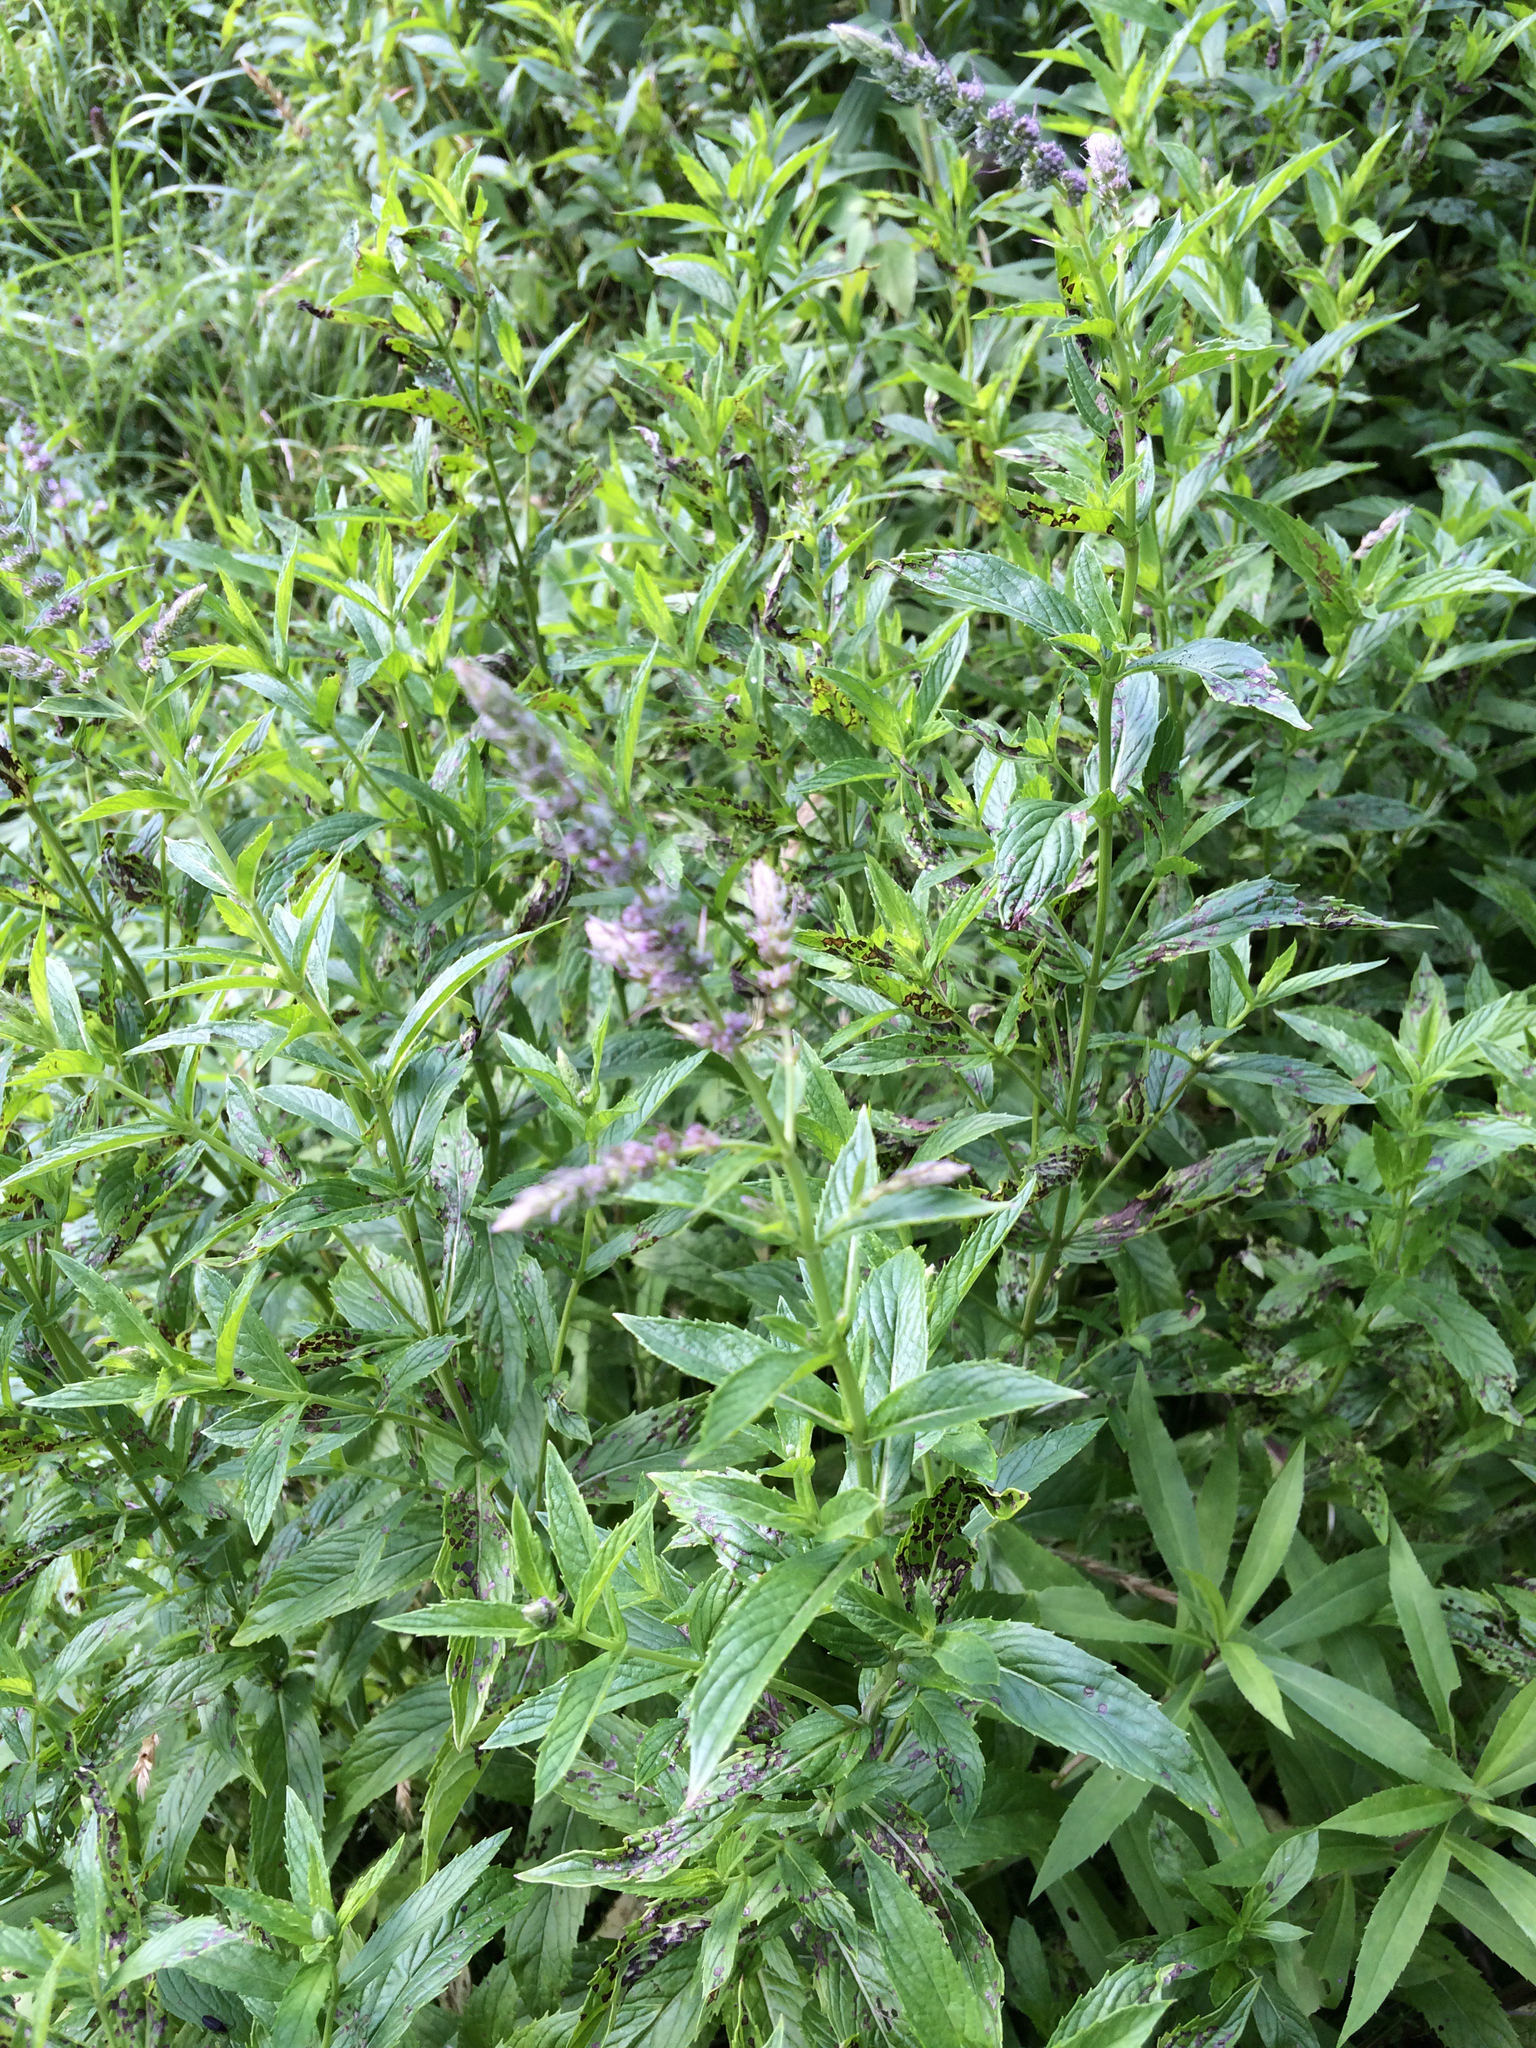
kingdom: Plantae
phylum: Tracheophyta
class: Magnoliopsida
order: Lamiales
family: Lamiaceae
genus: Mentha
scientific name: Mentha spicata
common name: Spearmint
